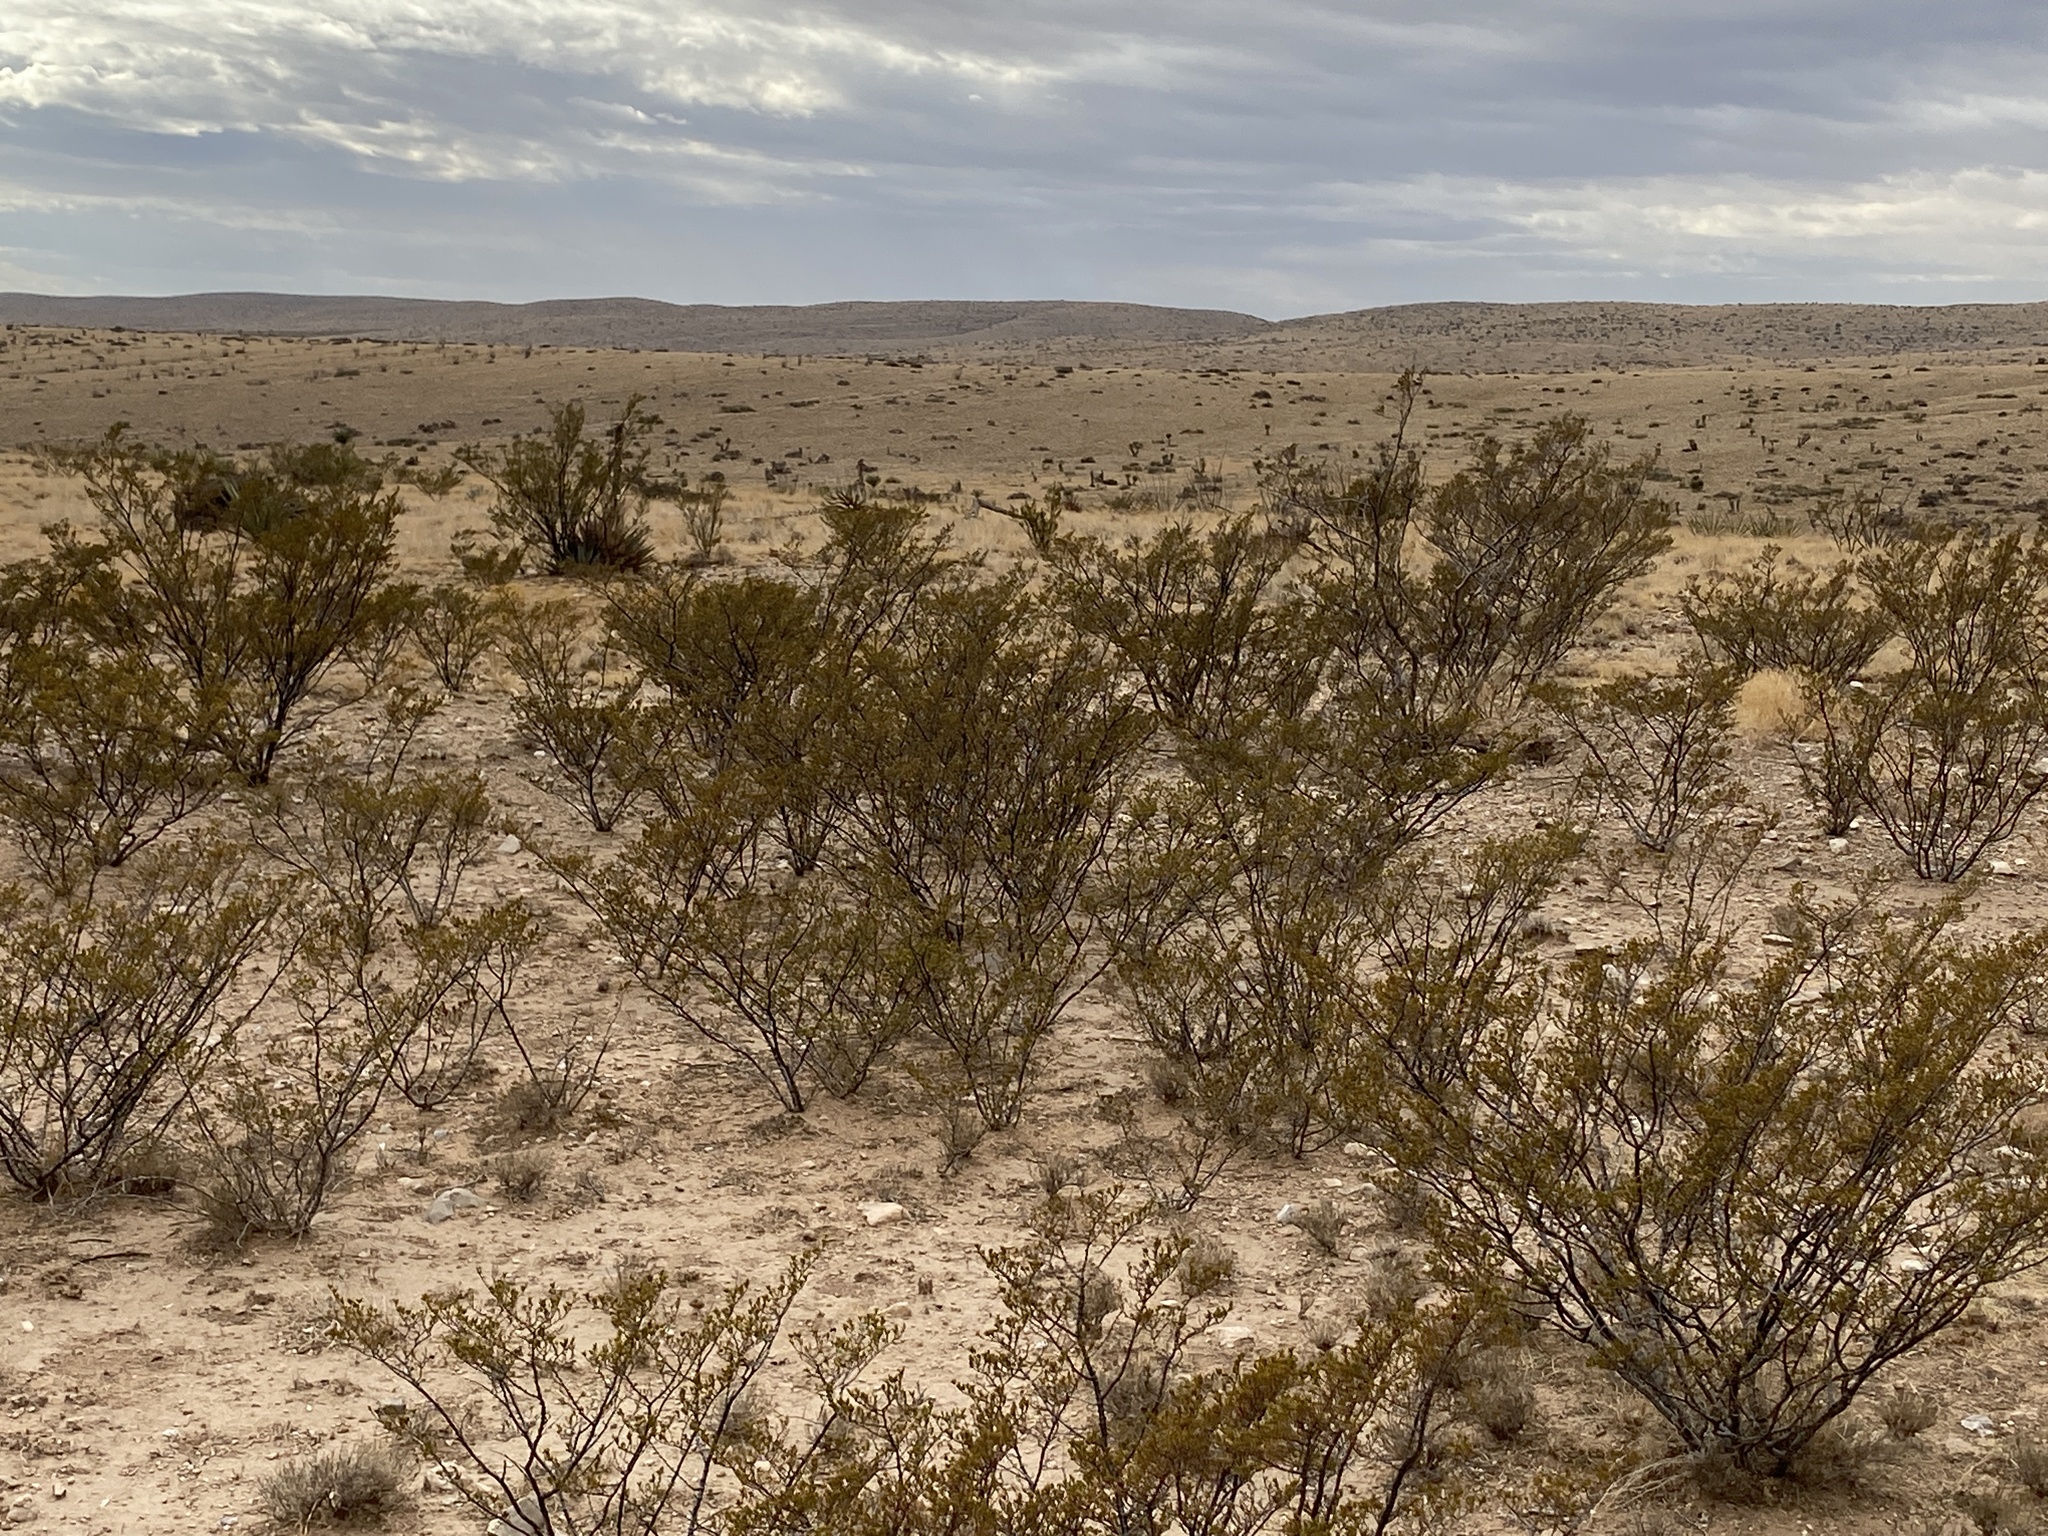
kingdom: Plantae
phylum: Tracheophyta
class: Magnoliopsida
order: Zygophyllales
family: Zygophyllaceae
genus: Larrea
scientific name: Larrea tridentata
